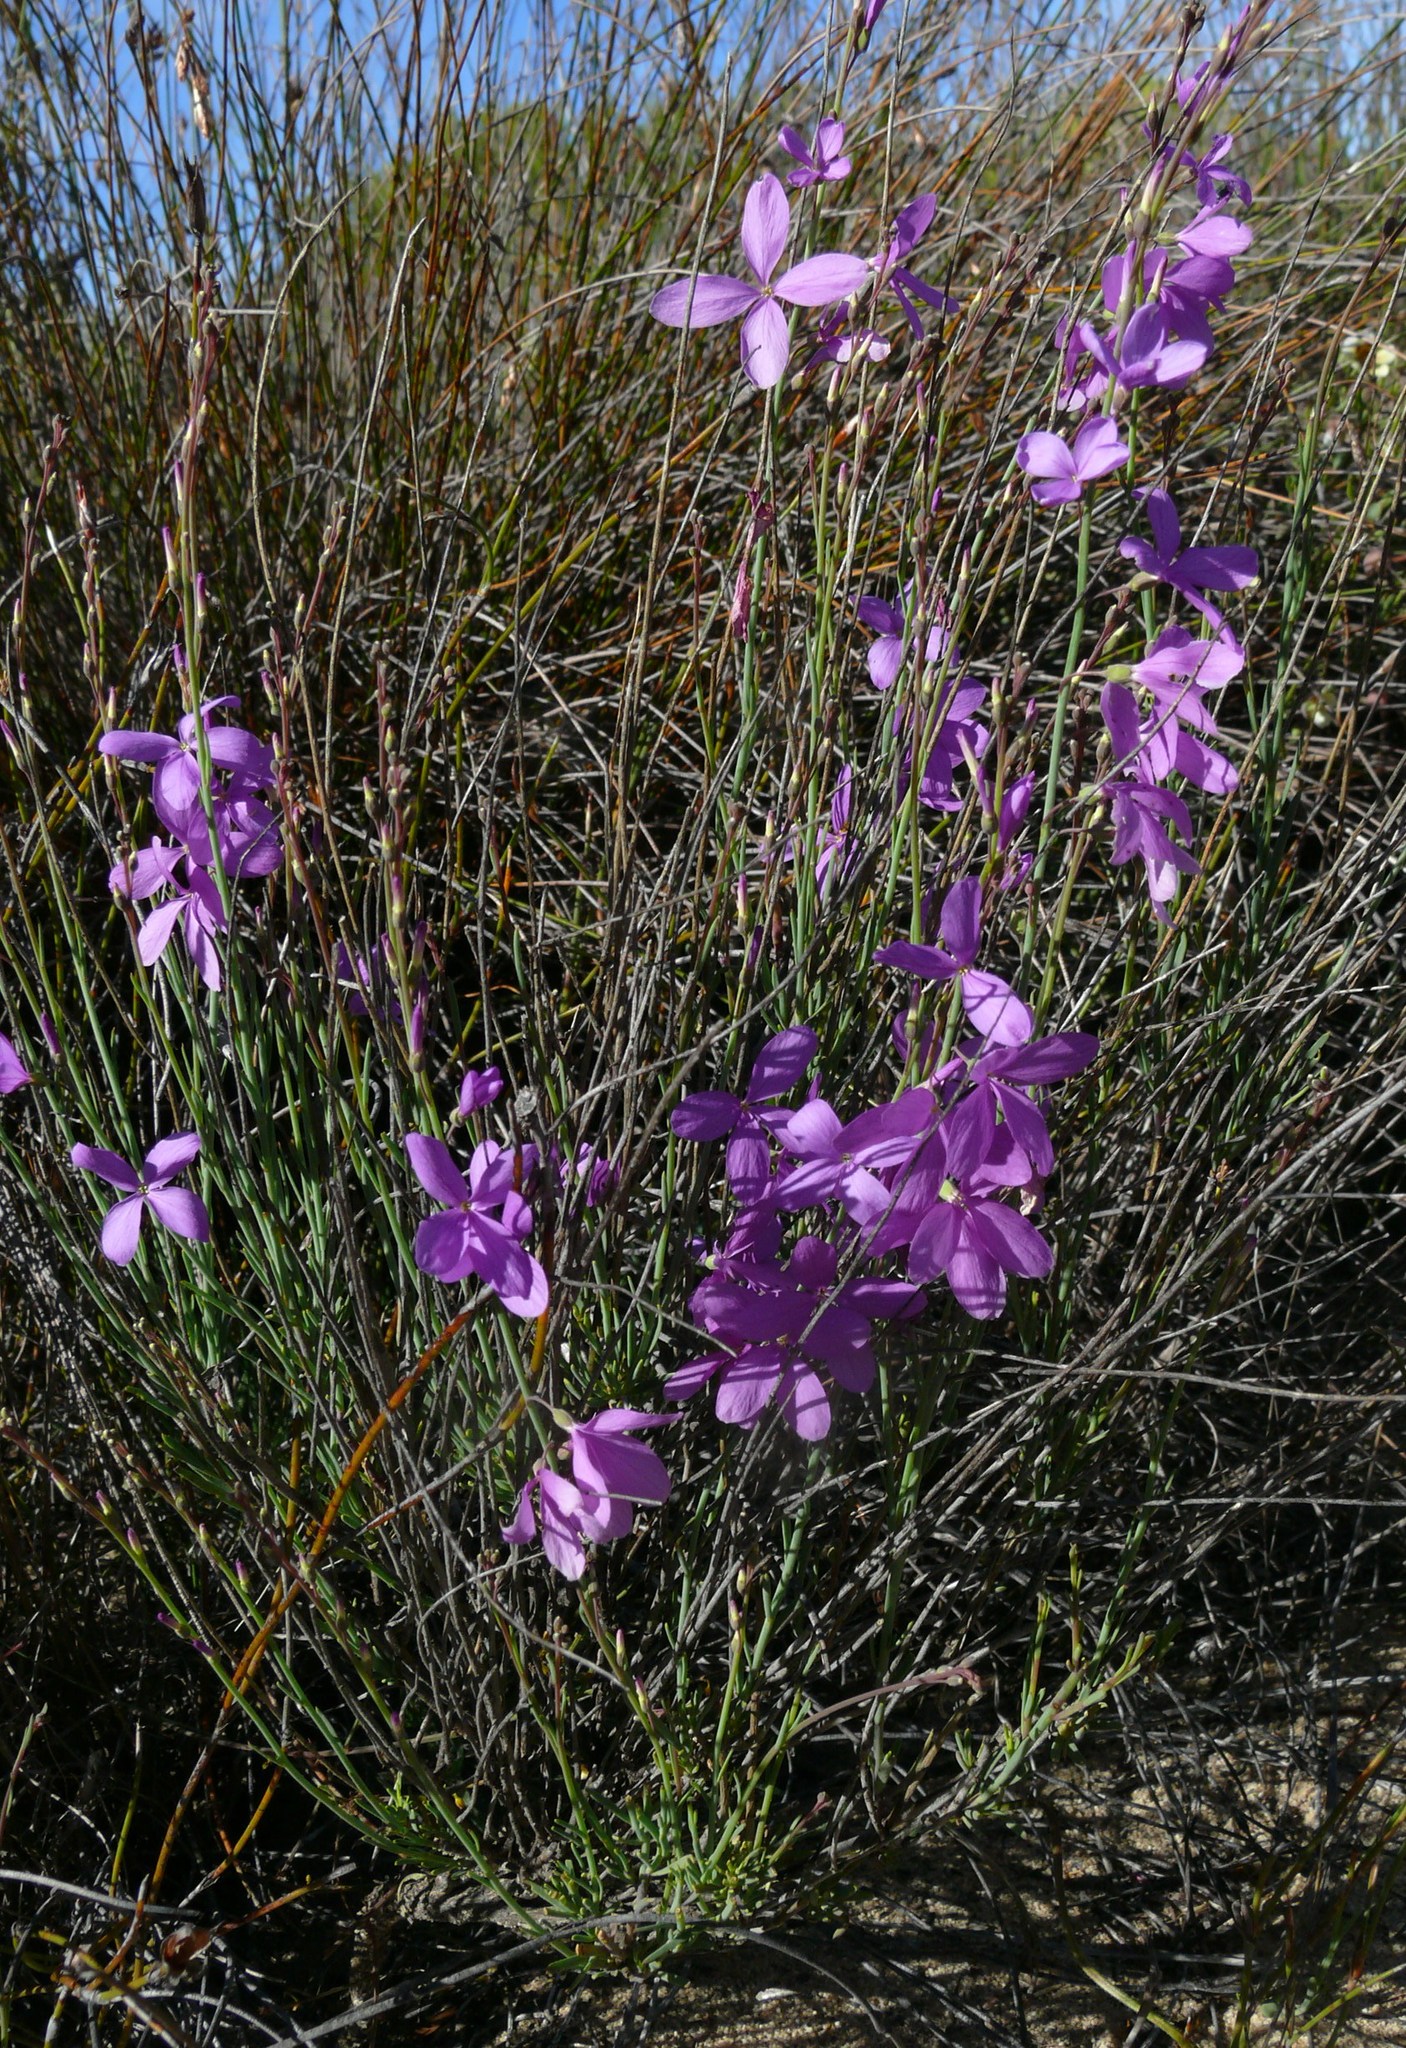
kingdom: Plantae
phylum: Tracheophyta
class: Magnoliopsida
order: Brassicales
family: Brassicaceae
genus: Heliophila
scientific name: Heliophila juncea
